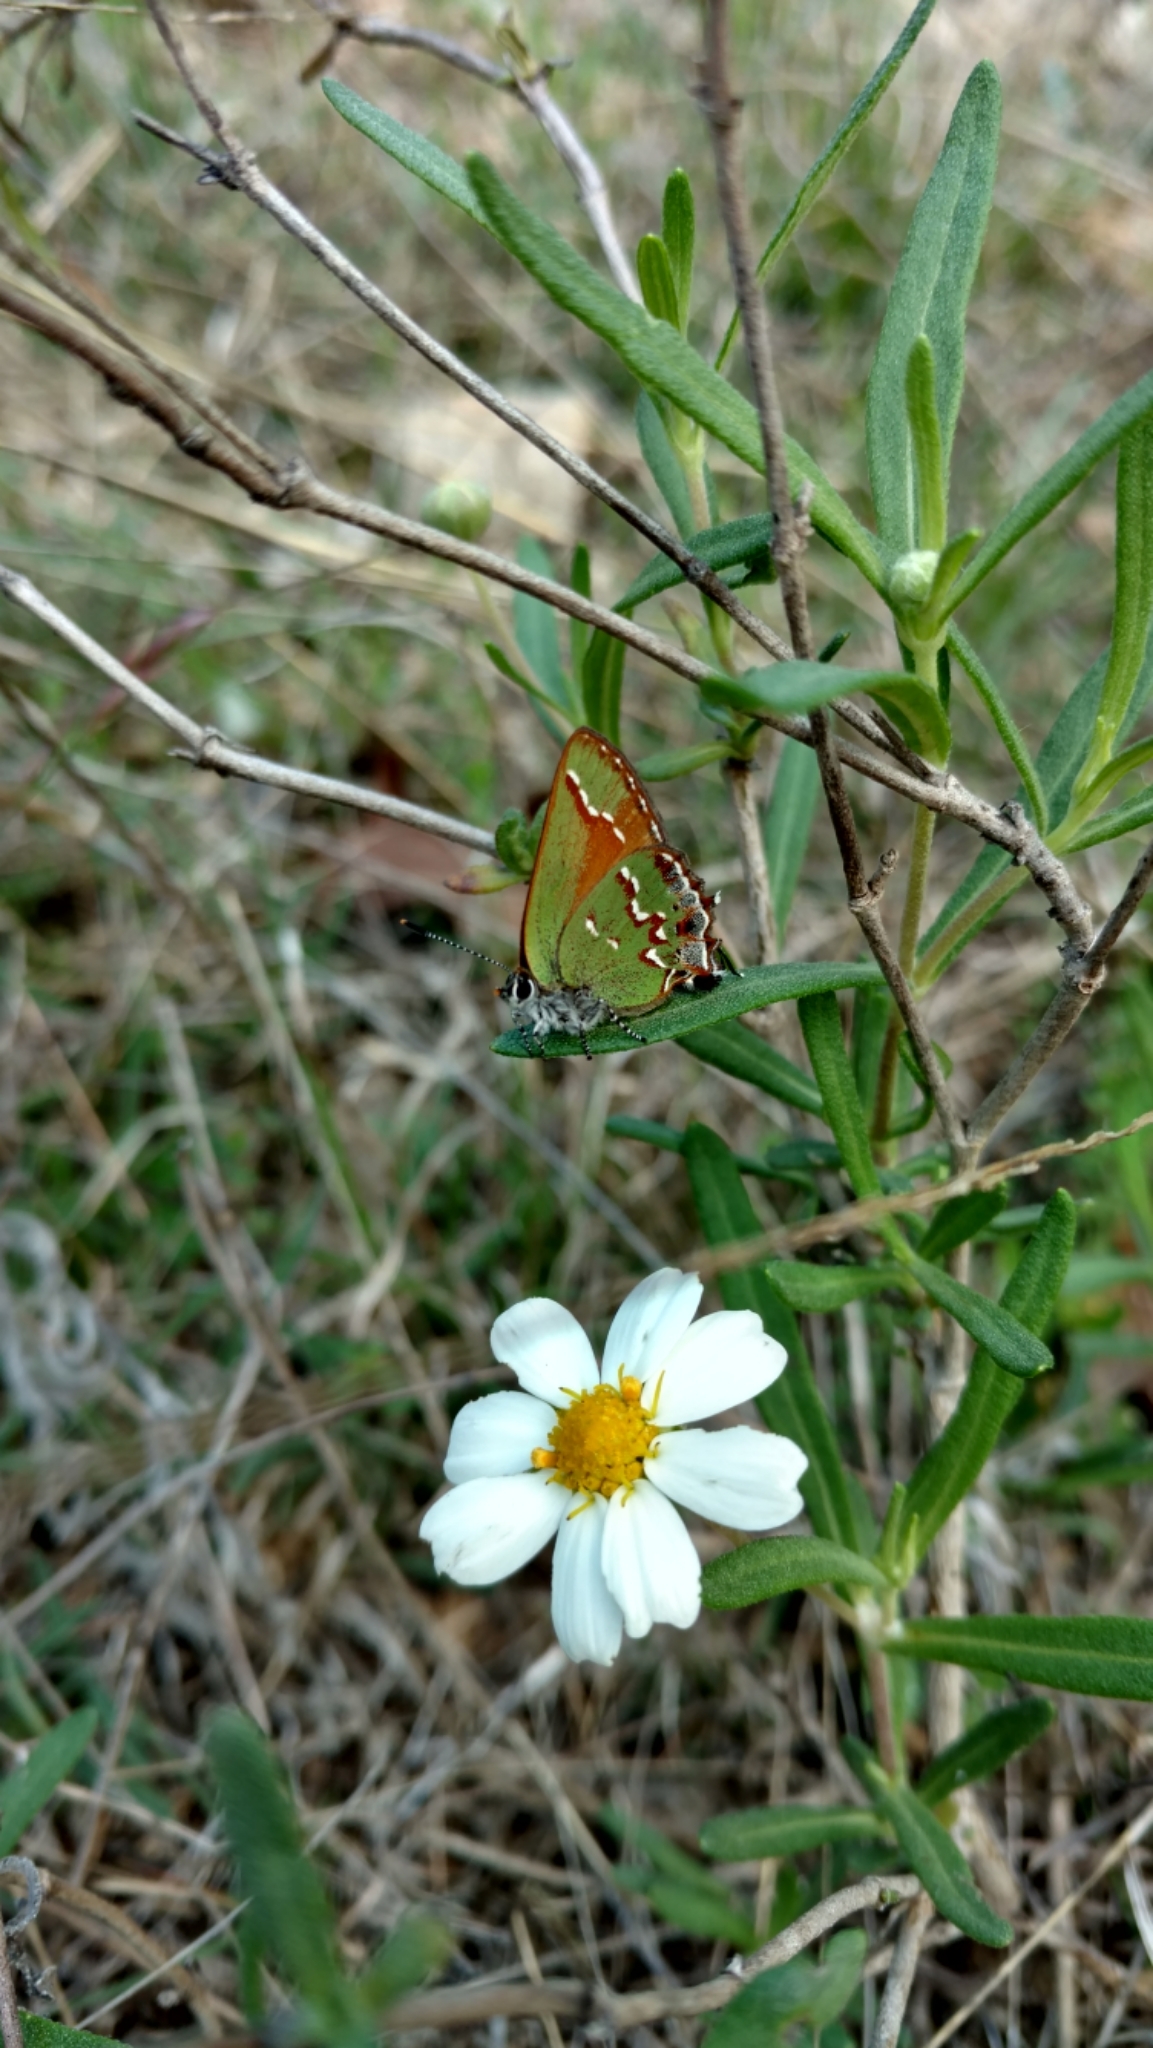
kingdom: Animalia
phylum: Arthropoda
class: Insecta
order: Lepidoptera
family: Lycaenidae
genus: Mitoura
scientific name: Mitoura gryneus
